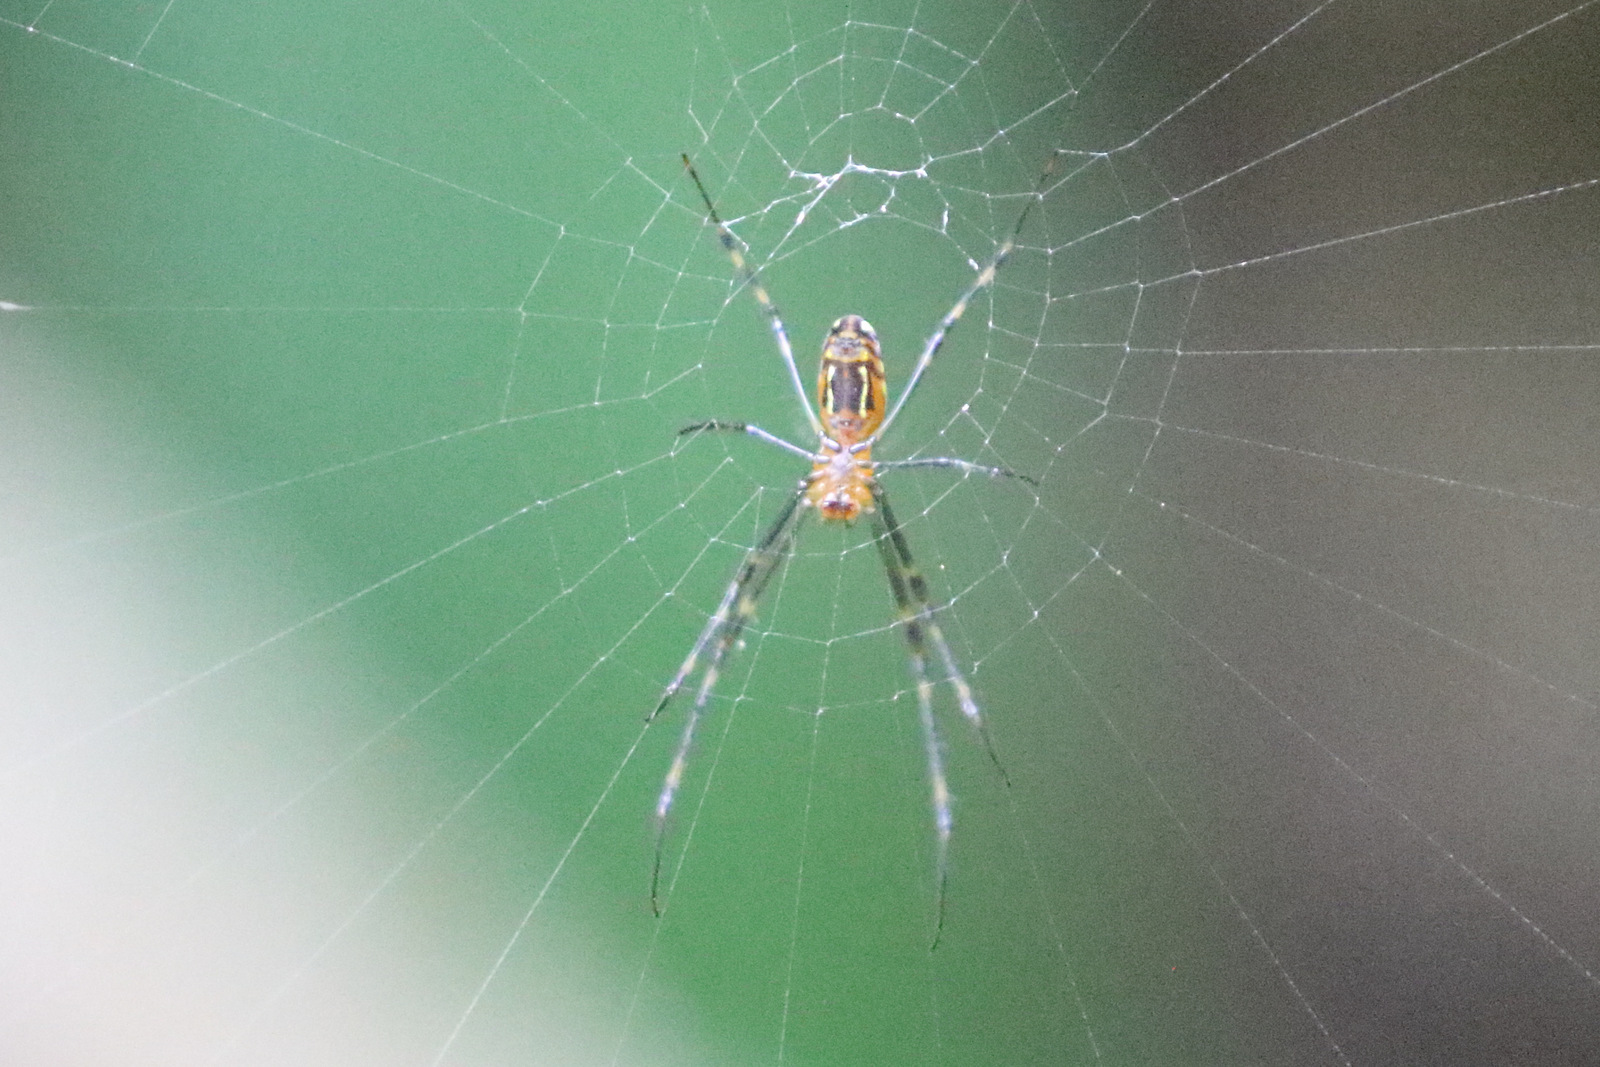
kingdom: Animalia
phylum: Arthropoda
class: Arachnida
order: Araneae
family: Tetragnathidae
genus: Leucauge
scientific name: Leucauge granulata
